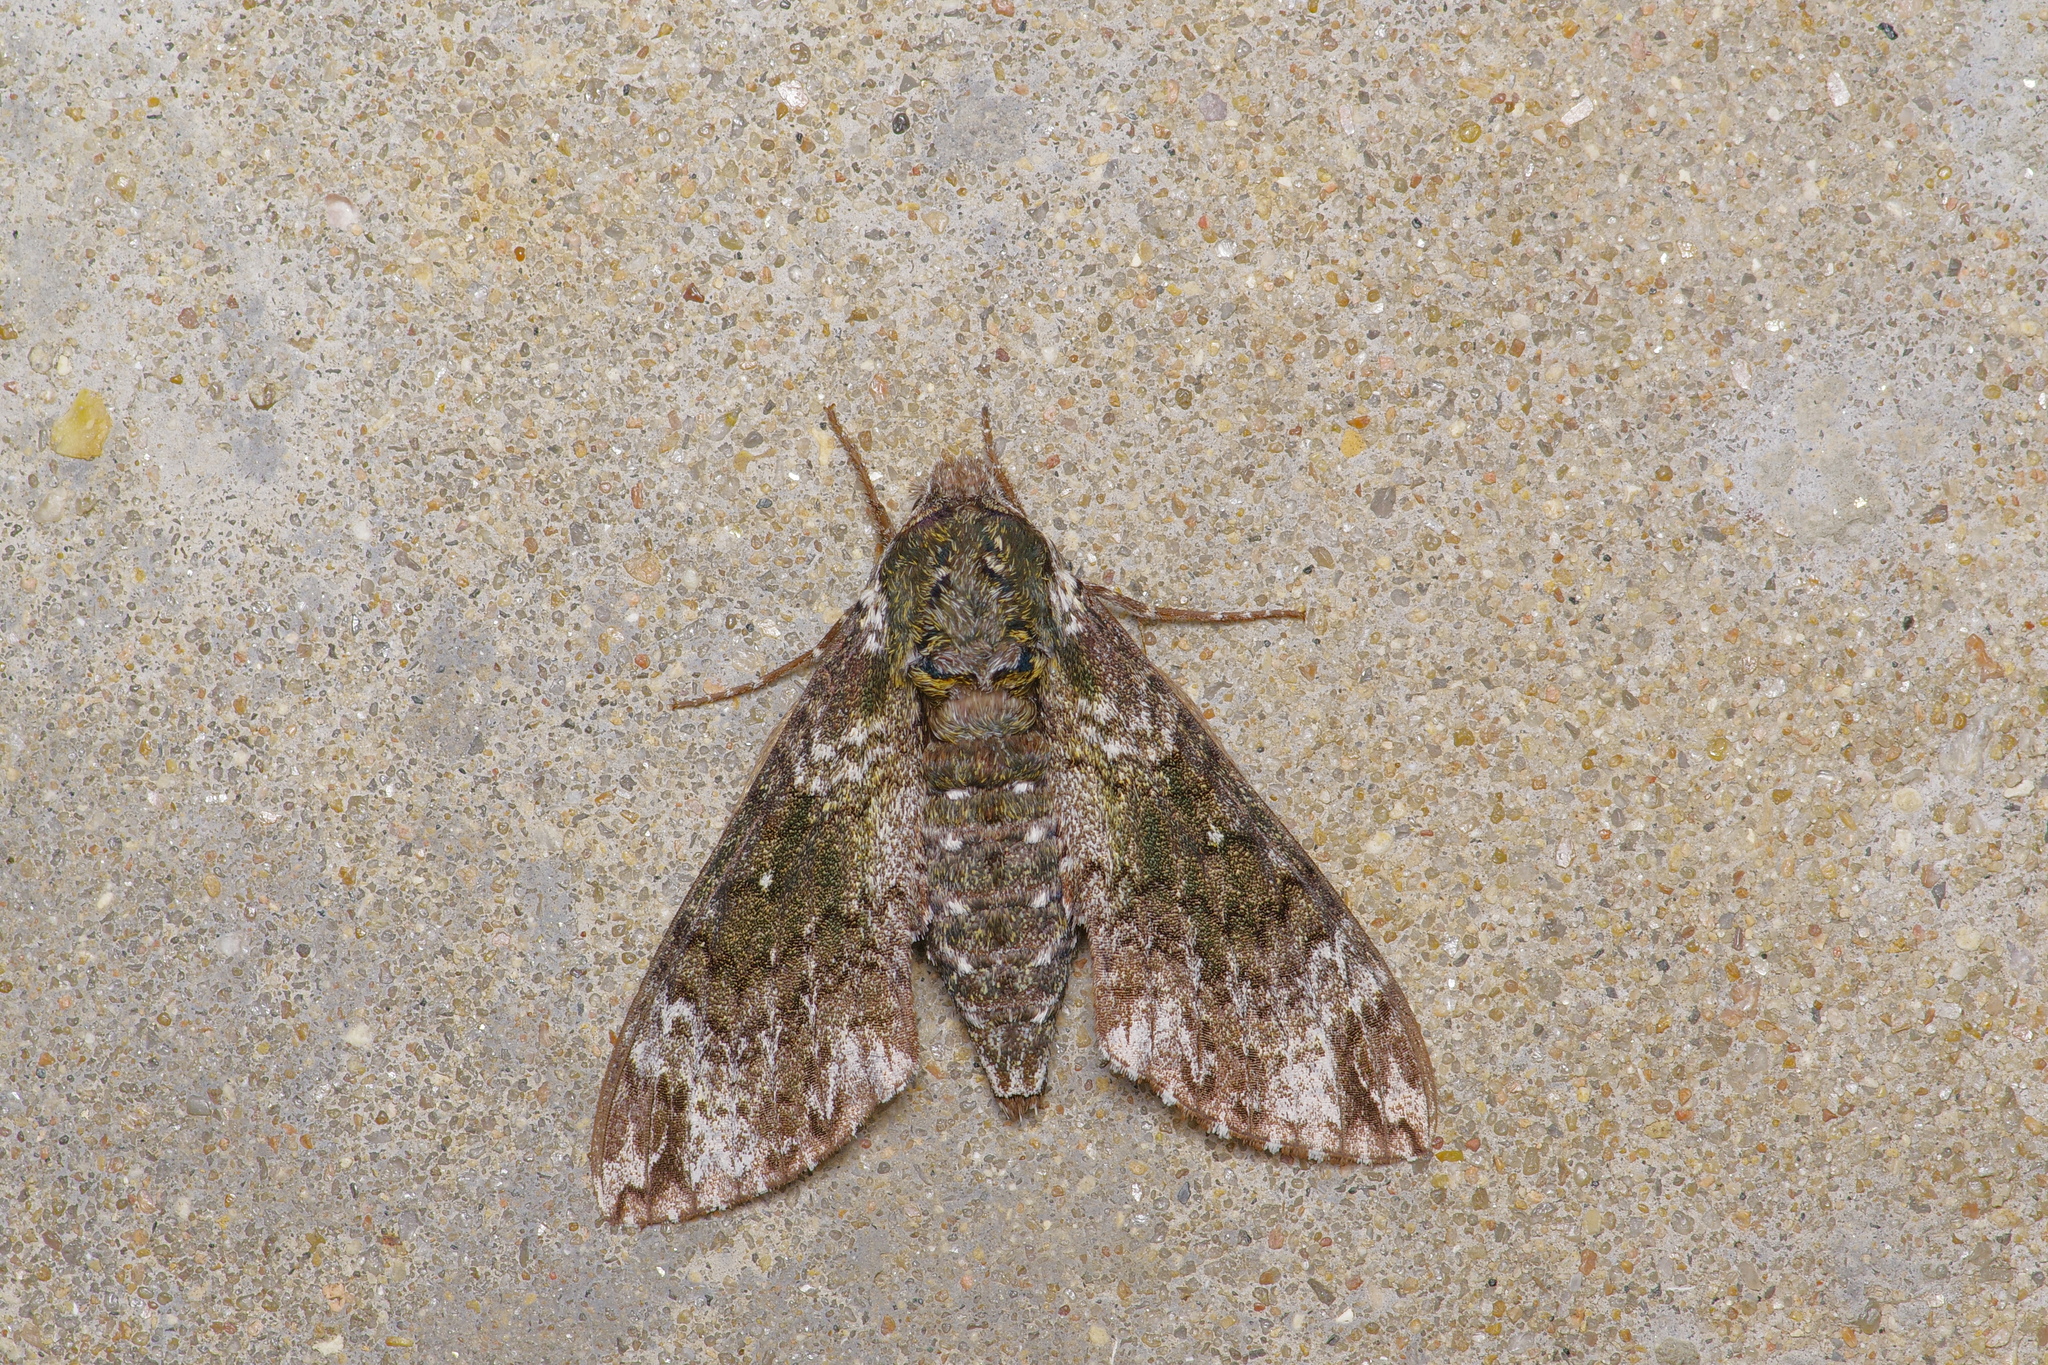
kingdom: Animalia
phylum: Arthropoda
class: Insecta
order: Lepidoptera
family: Sphingidae
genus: Dolba
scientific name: Dolba hyloeus
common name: Pawpaw sphinx
